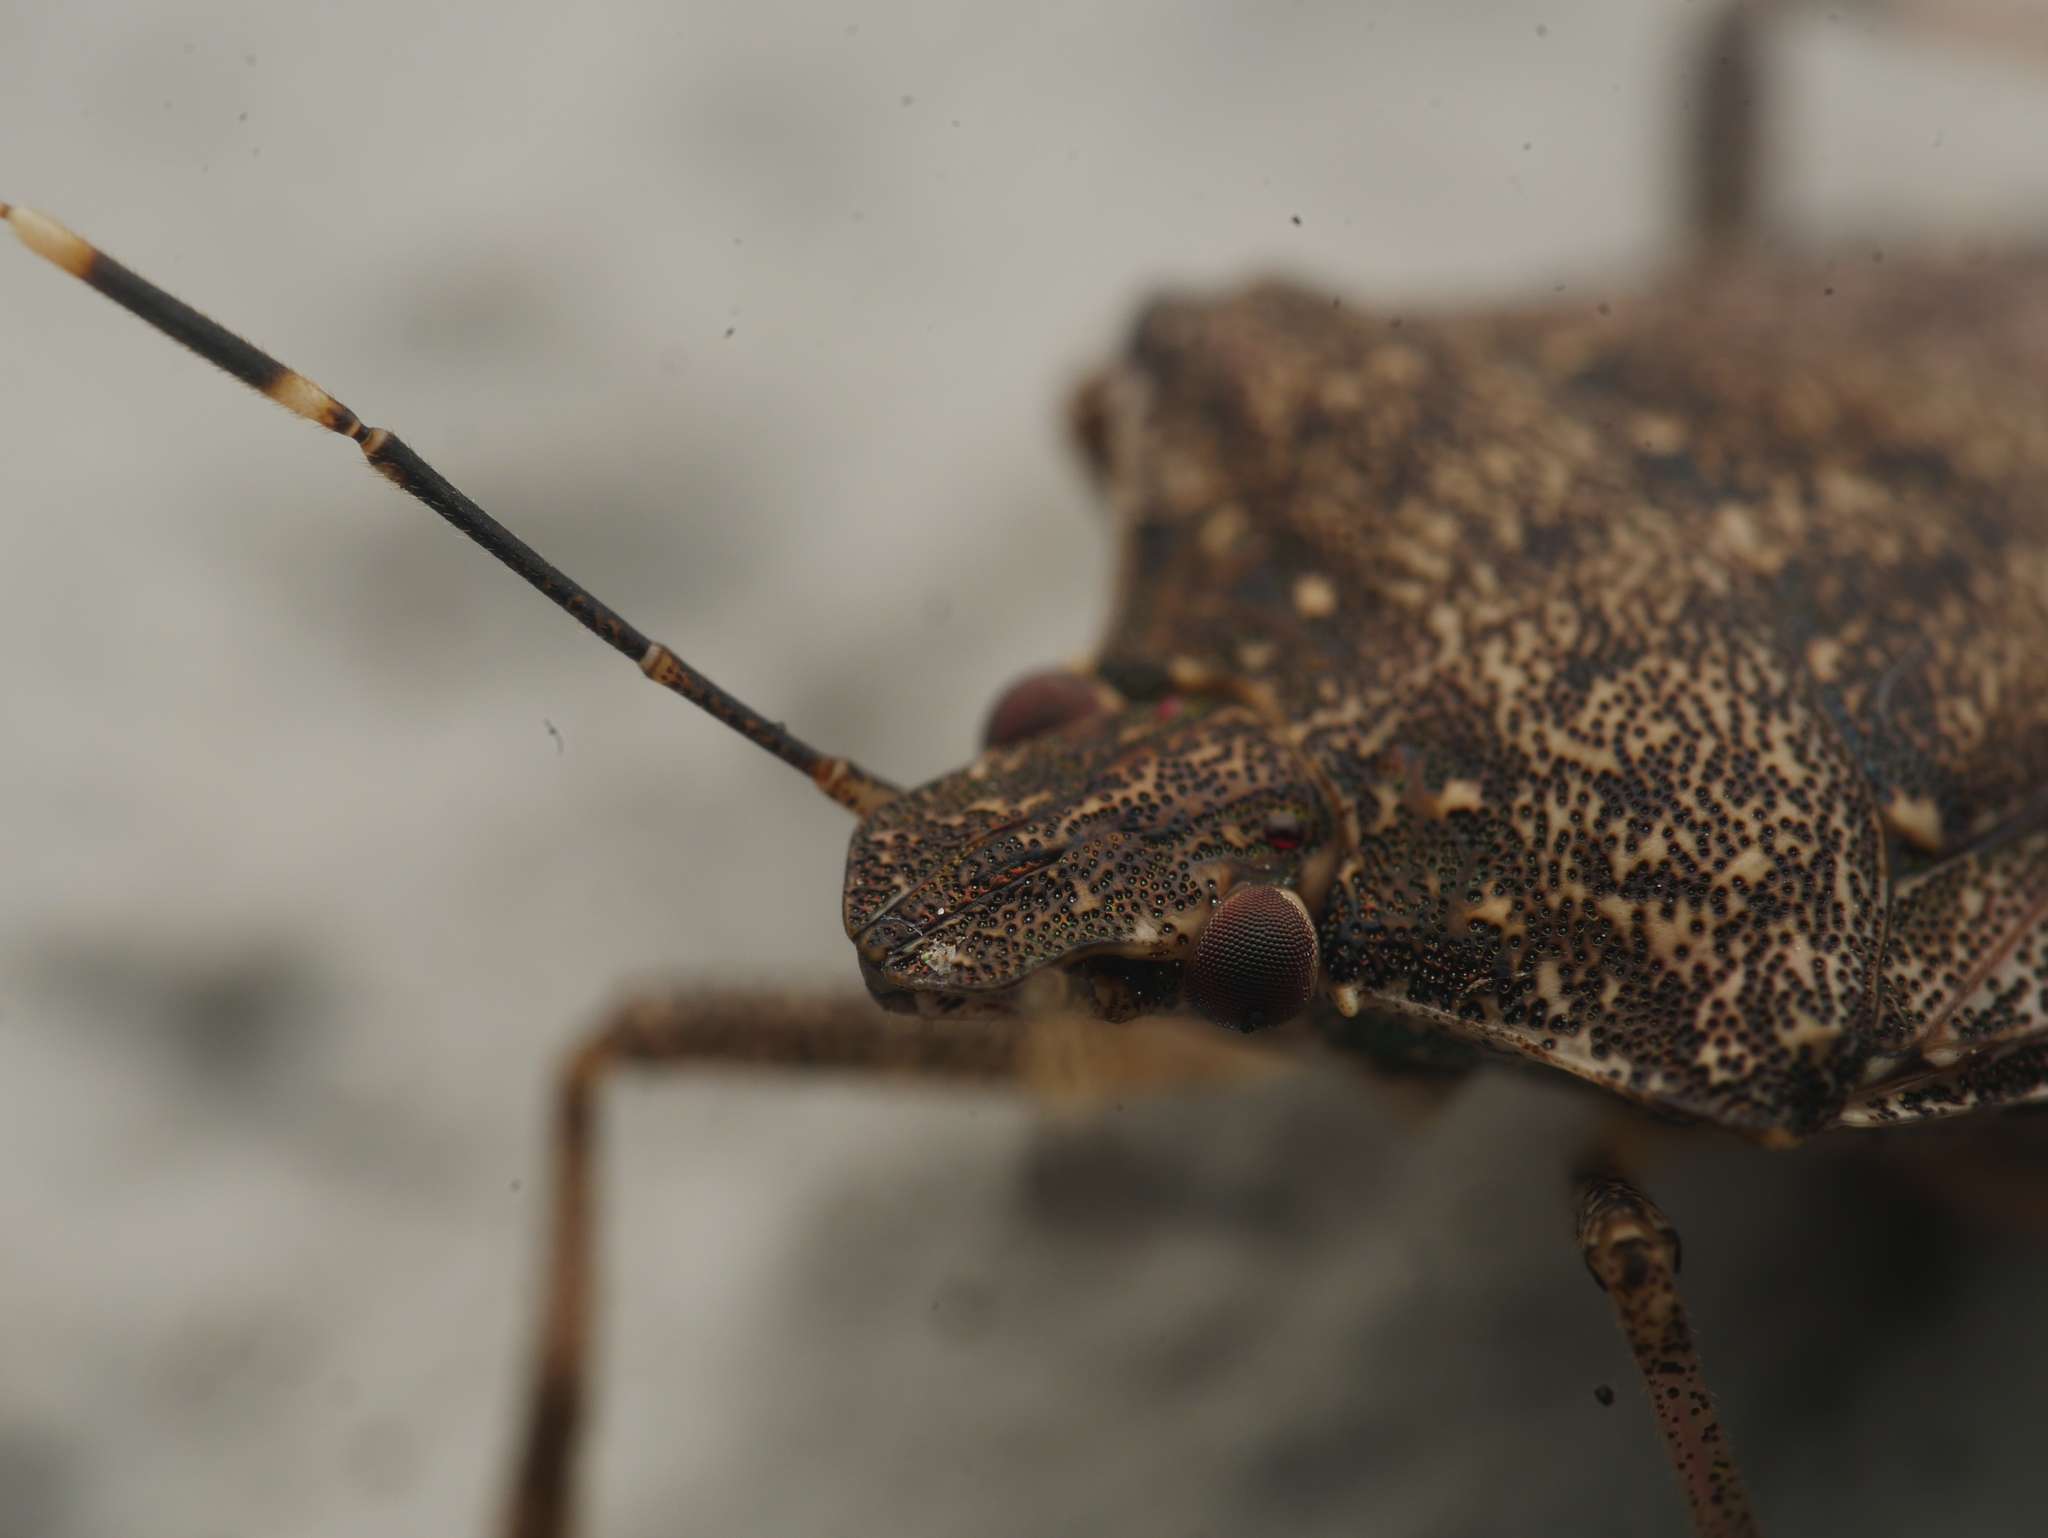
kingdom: Animalia
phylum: Arthropoda
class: Insecta
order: Hemiptera
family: Pentatomidae
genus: Halyomorpha
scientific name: Halyomorpha halys
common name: Brown marmorated stink bug
